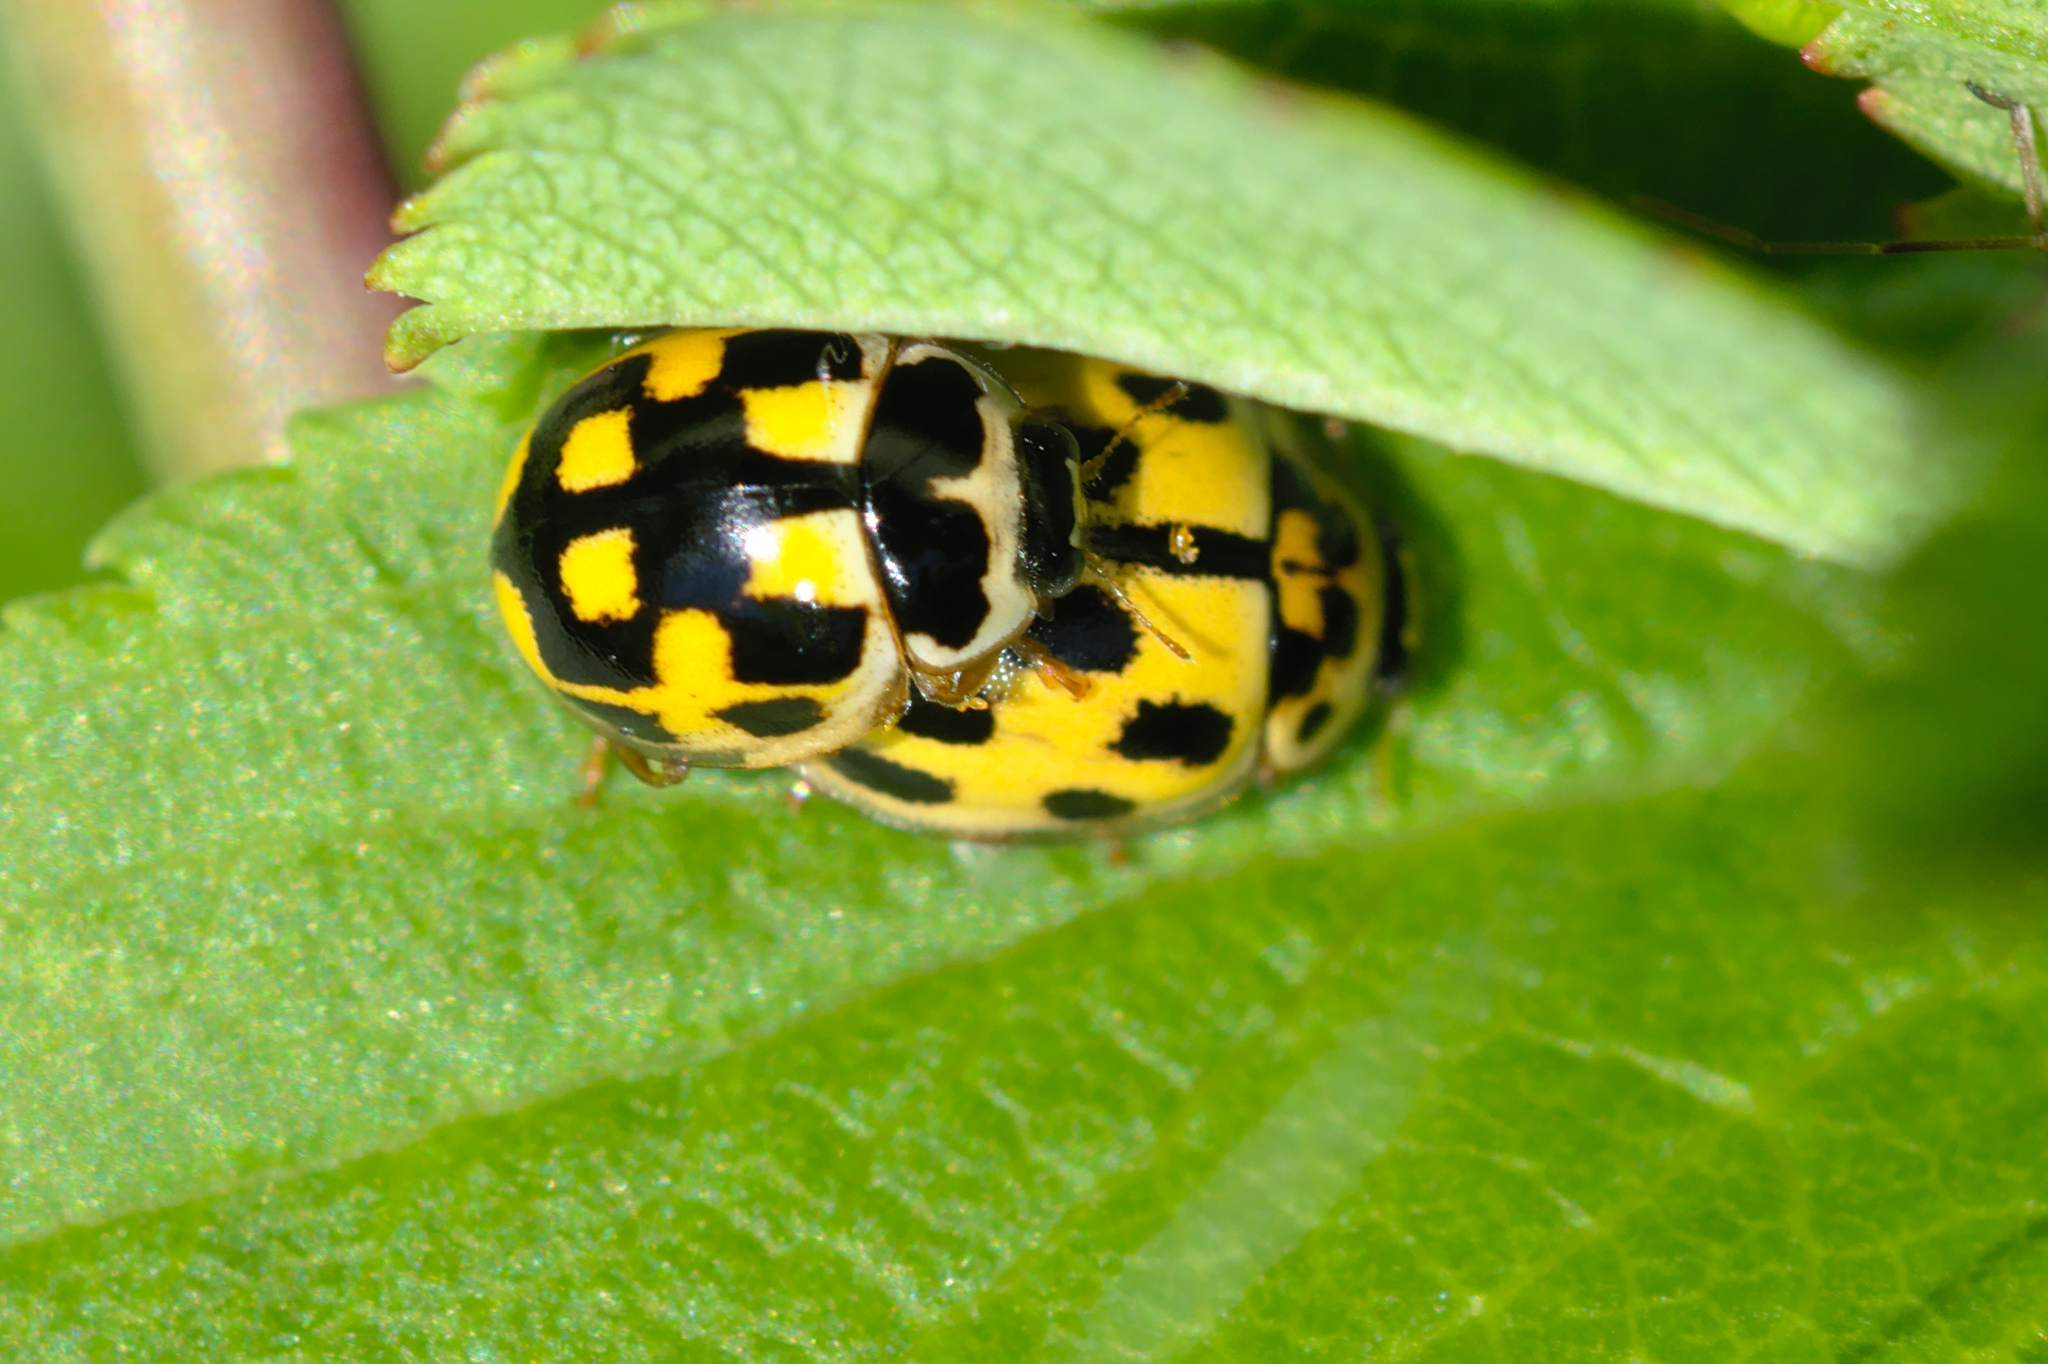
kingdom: Animalia
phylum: Arthropoda
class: Insecta
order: Coleoptera
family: Coccinellidae
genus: Propylaea
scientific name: Propylaea quatuordecimpunctata
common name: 14-spotted ladybird beetle
